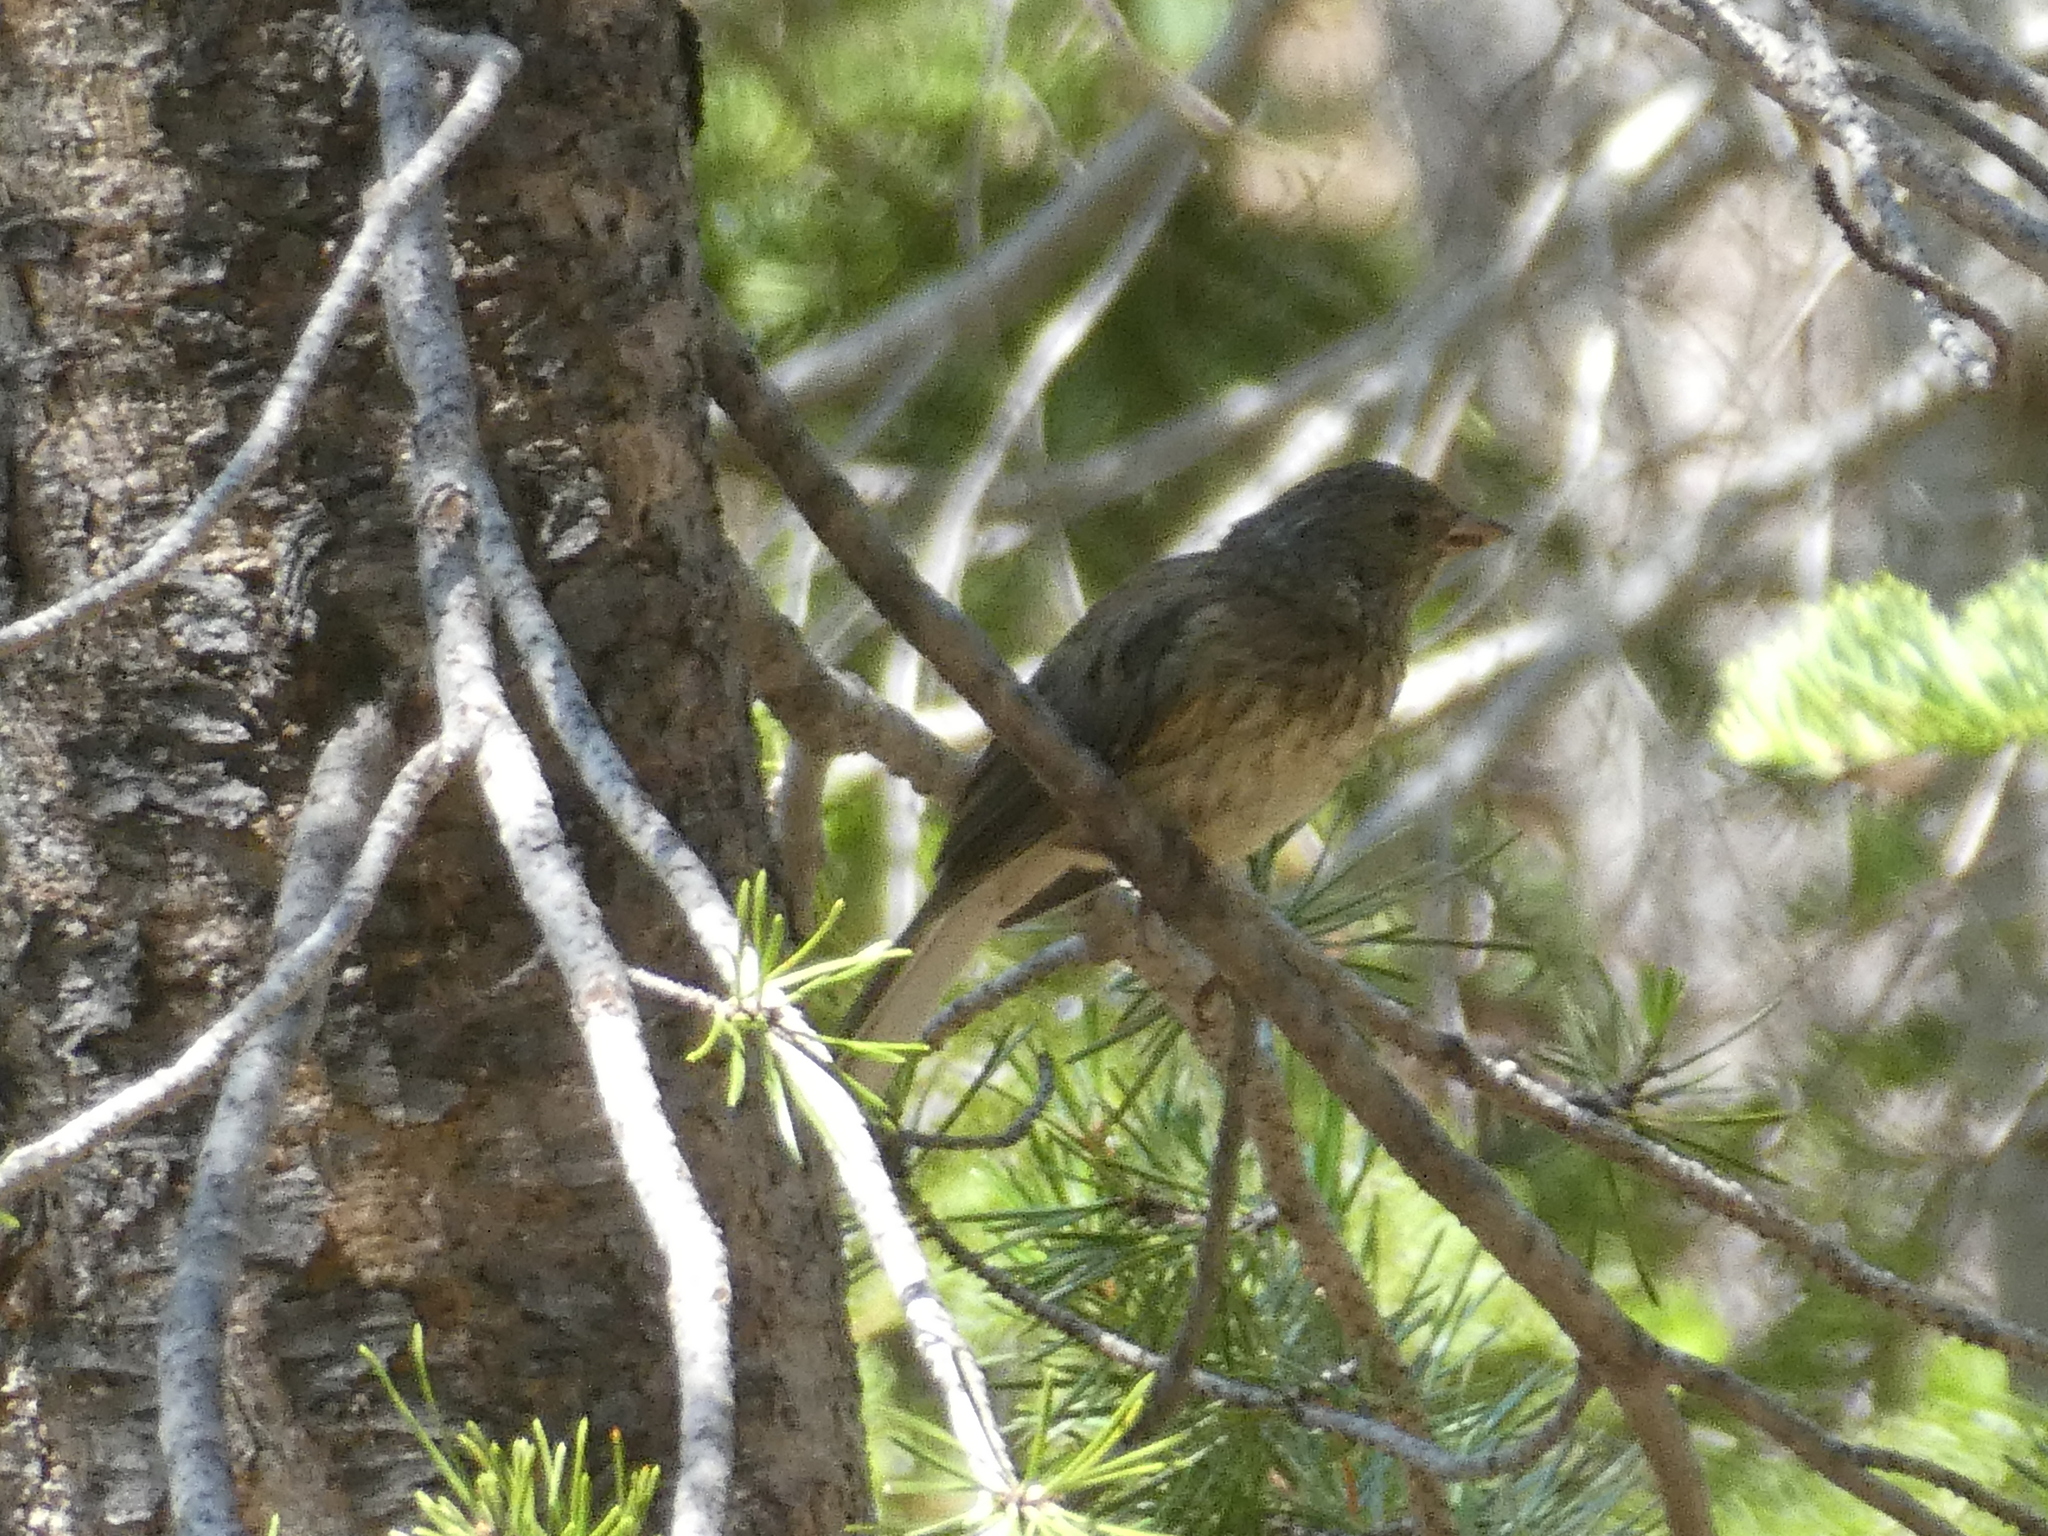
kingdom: Animalia
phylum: Chordata
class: Aves
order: Passeriformes
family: Fringillidae
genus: Haemorhous
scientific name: Haemorhous mexicanus
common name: House finch
